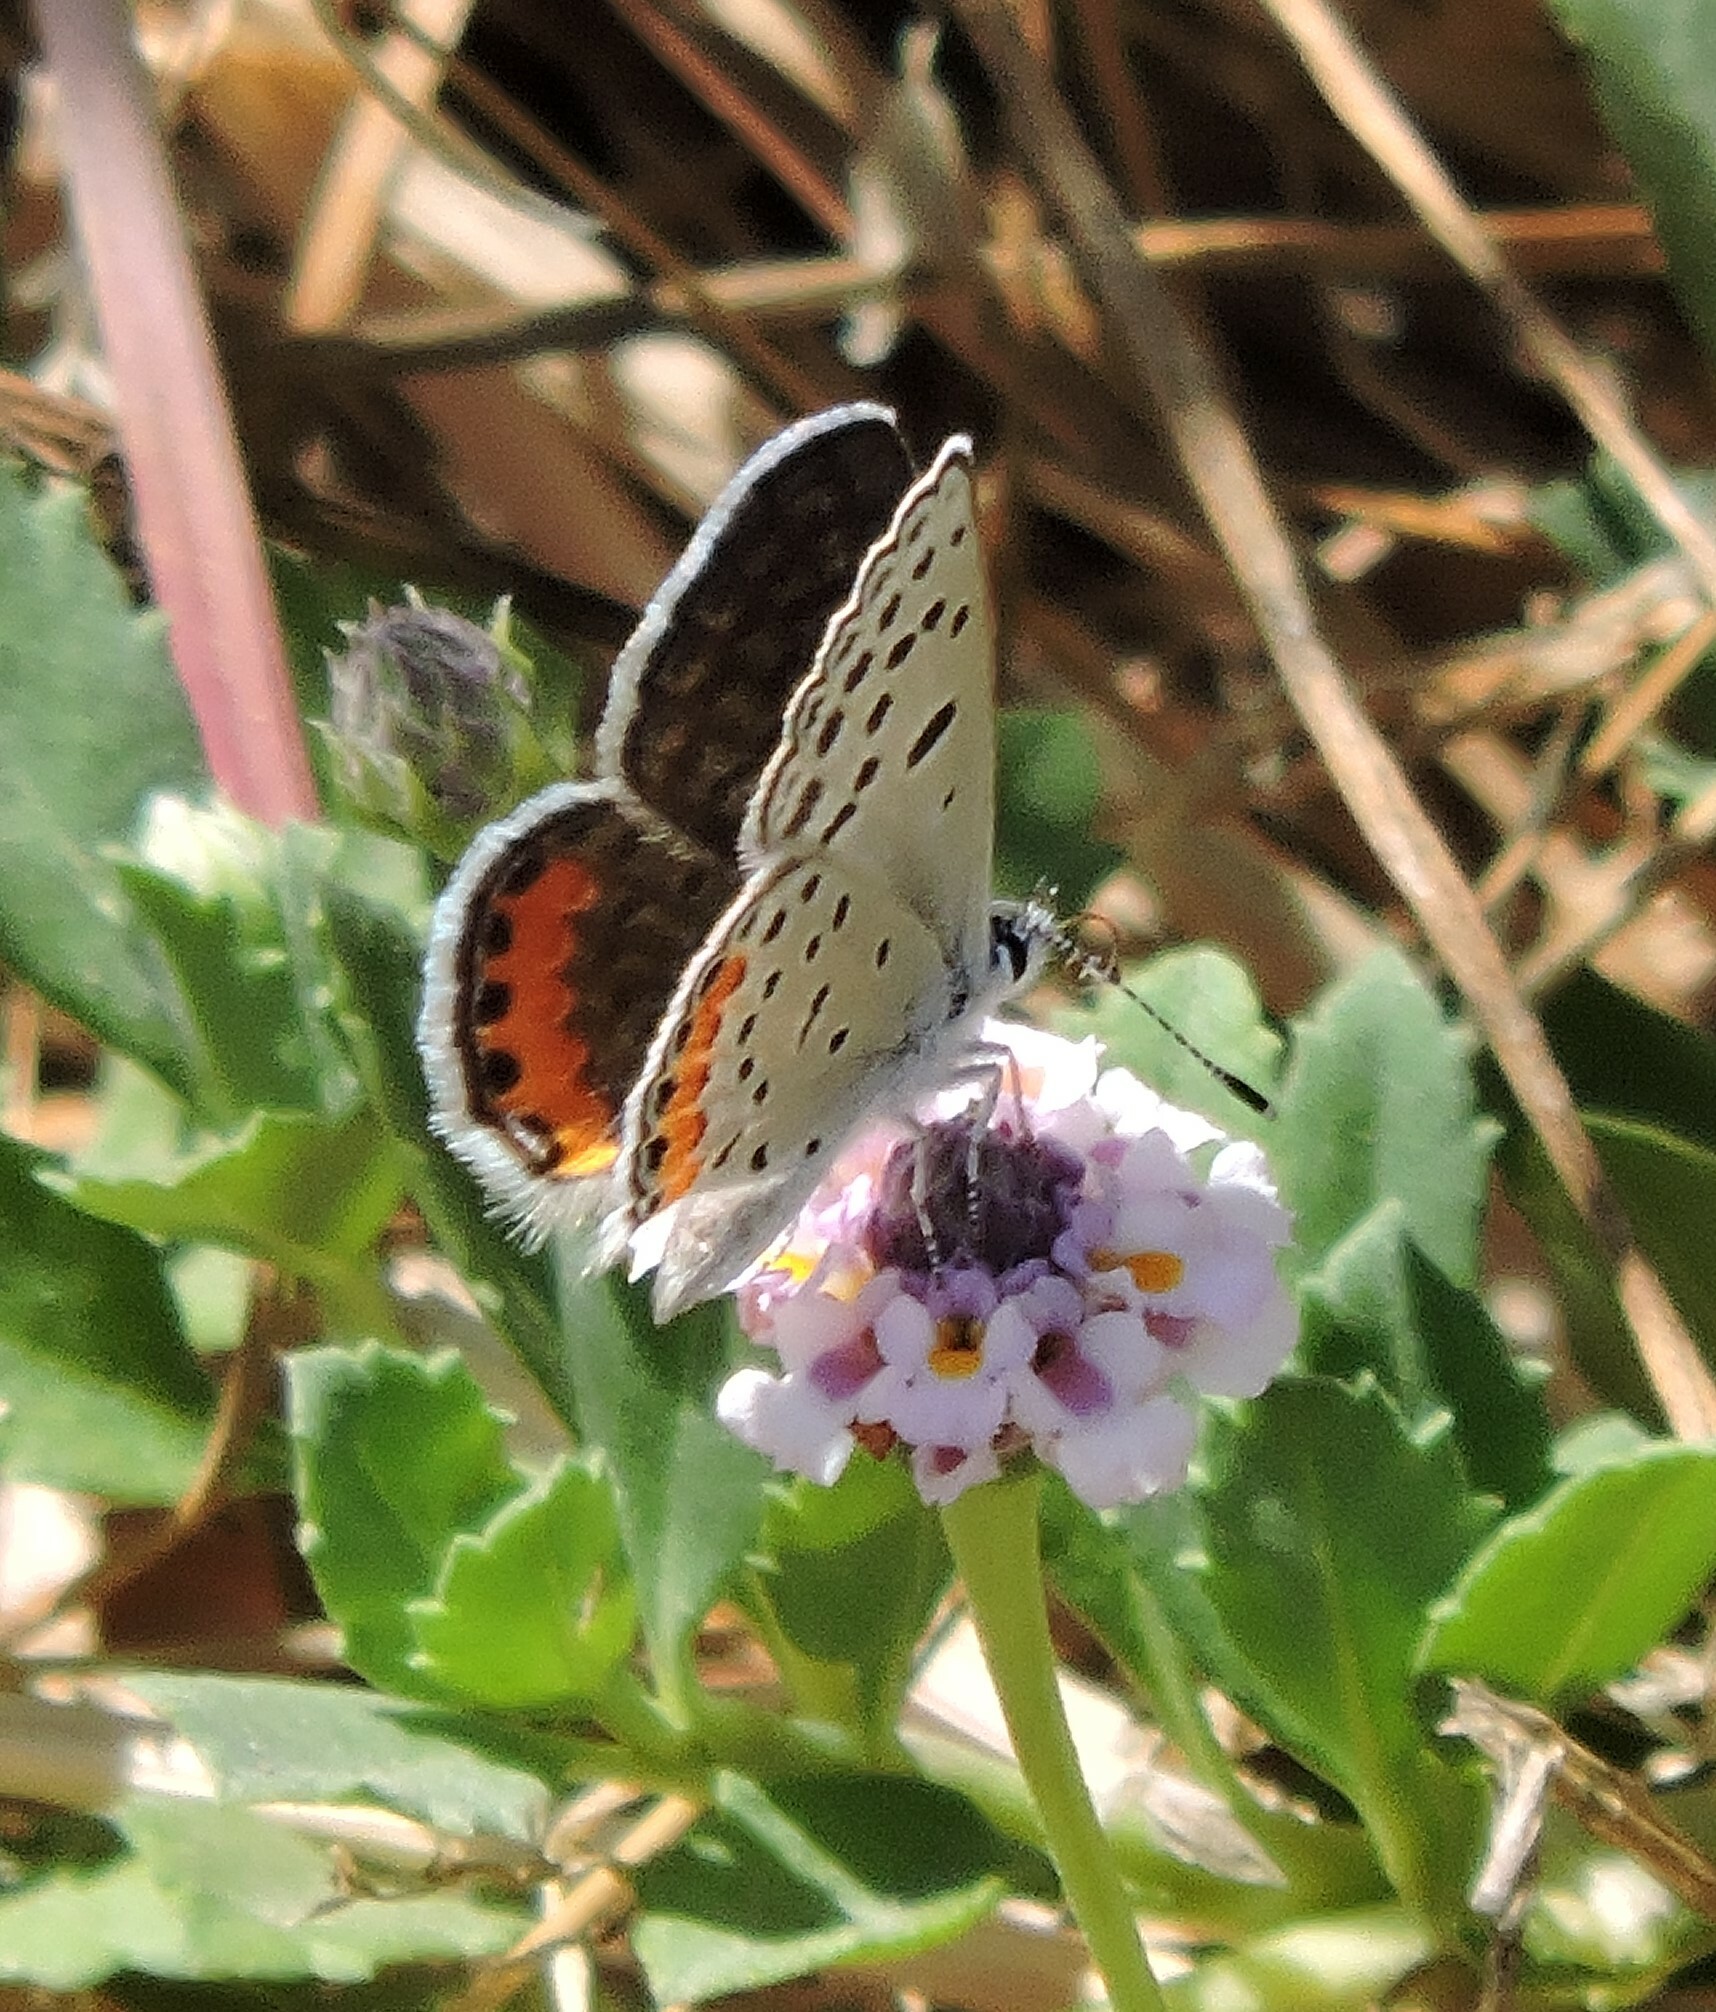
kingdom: Animalia
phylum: Arthropoda
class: Insecta
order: Lepidoptera
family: Lycaenidae
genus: Icaricia
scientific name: Icaricia acmon
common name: Acmon blue
